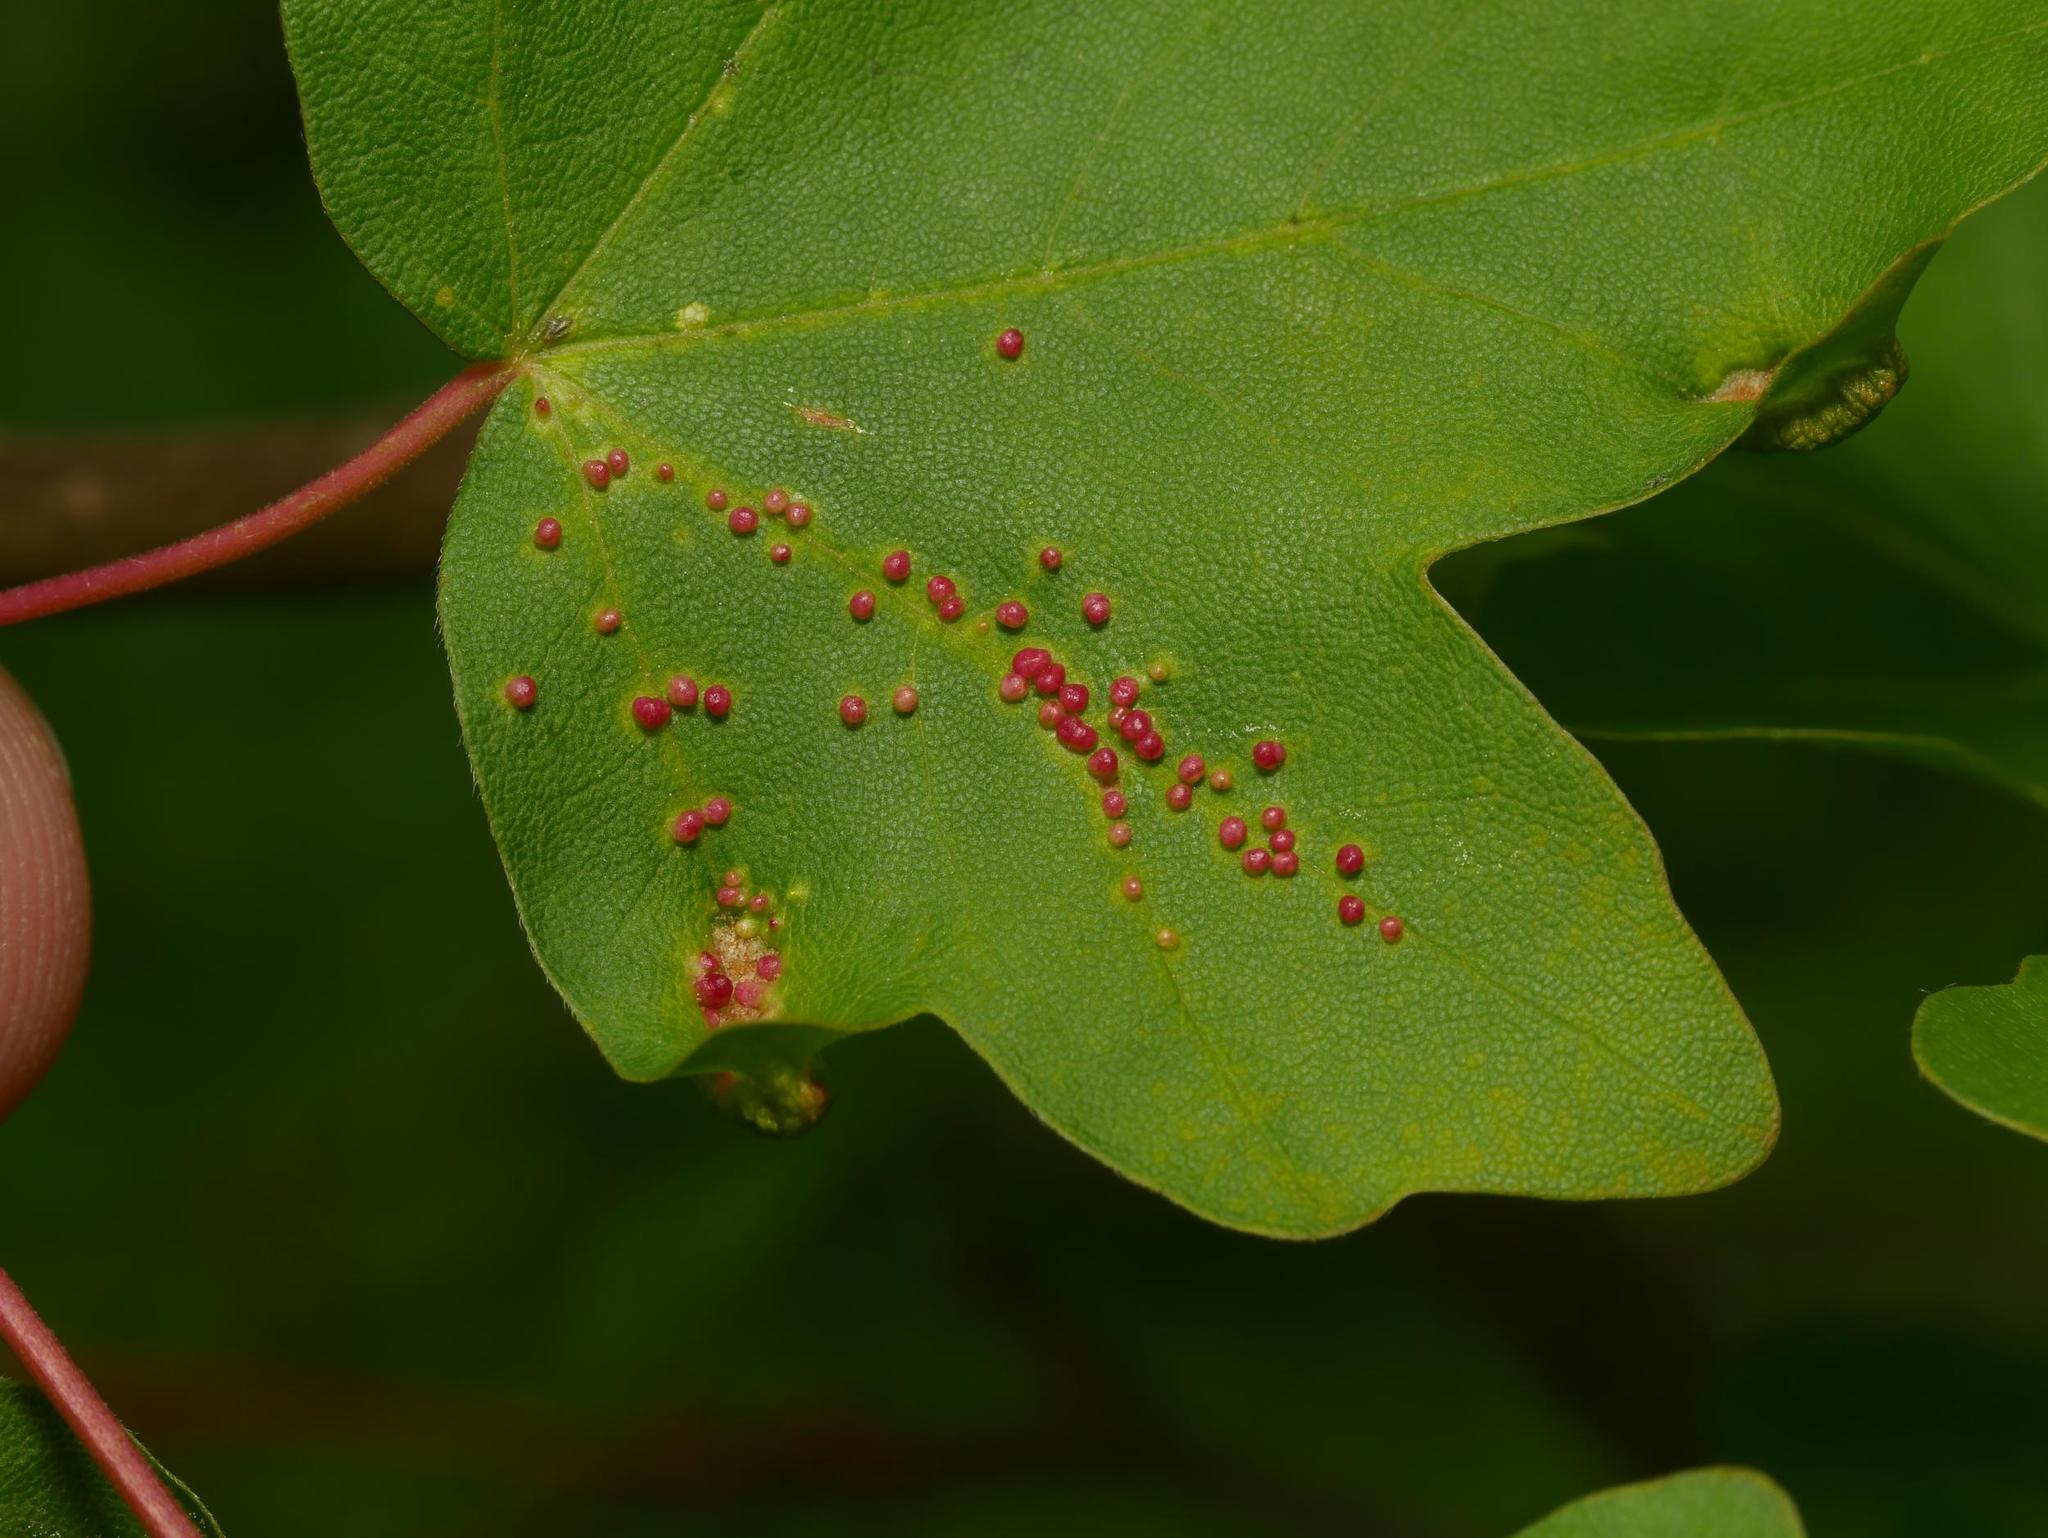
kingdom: Animalia
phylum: Arthropoda
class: Arachnida
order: Trombidiformes
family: Eriophyidae
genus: Aceria
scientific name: Aceria myriadeum
